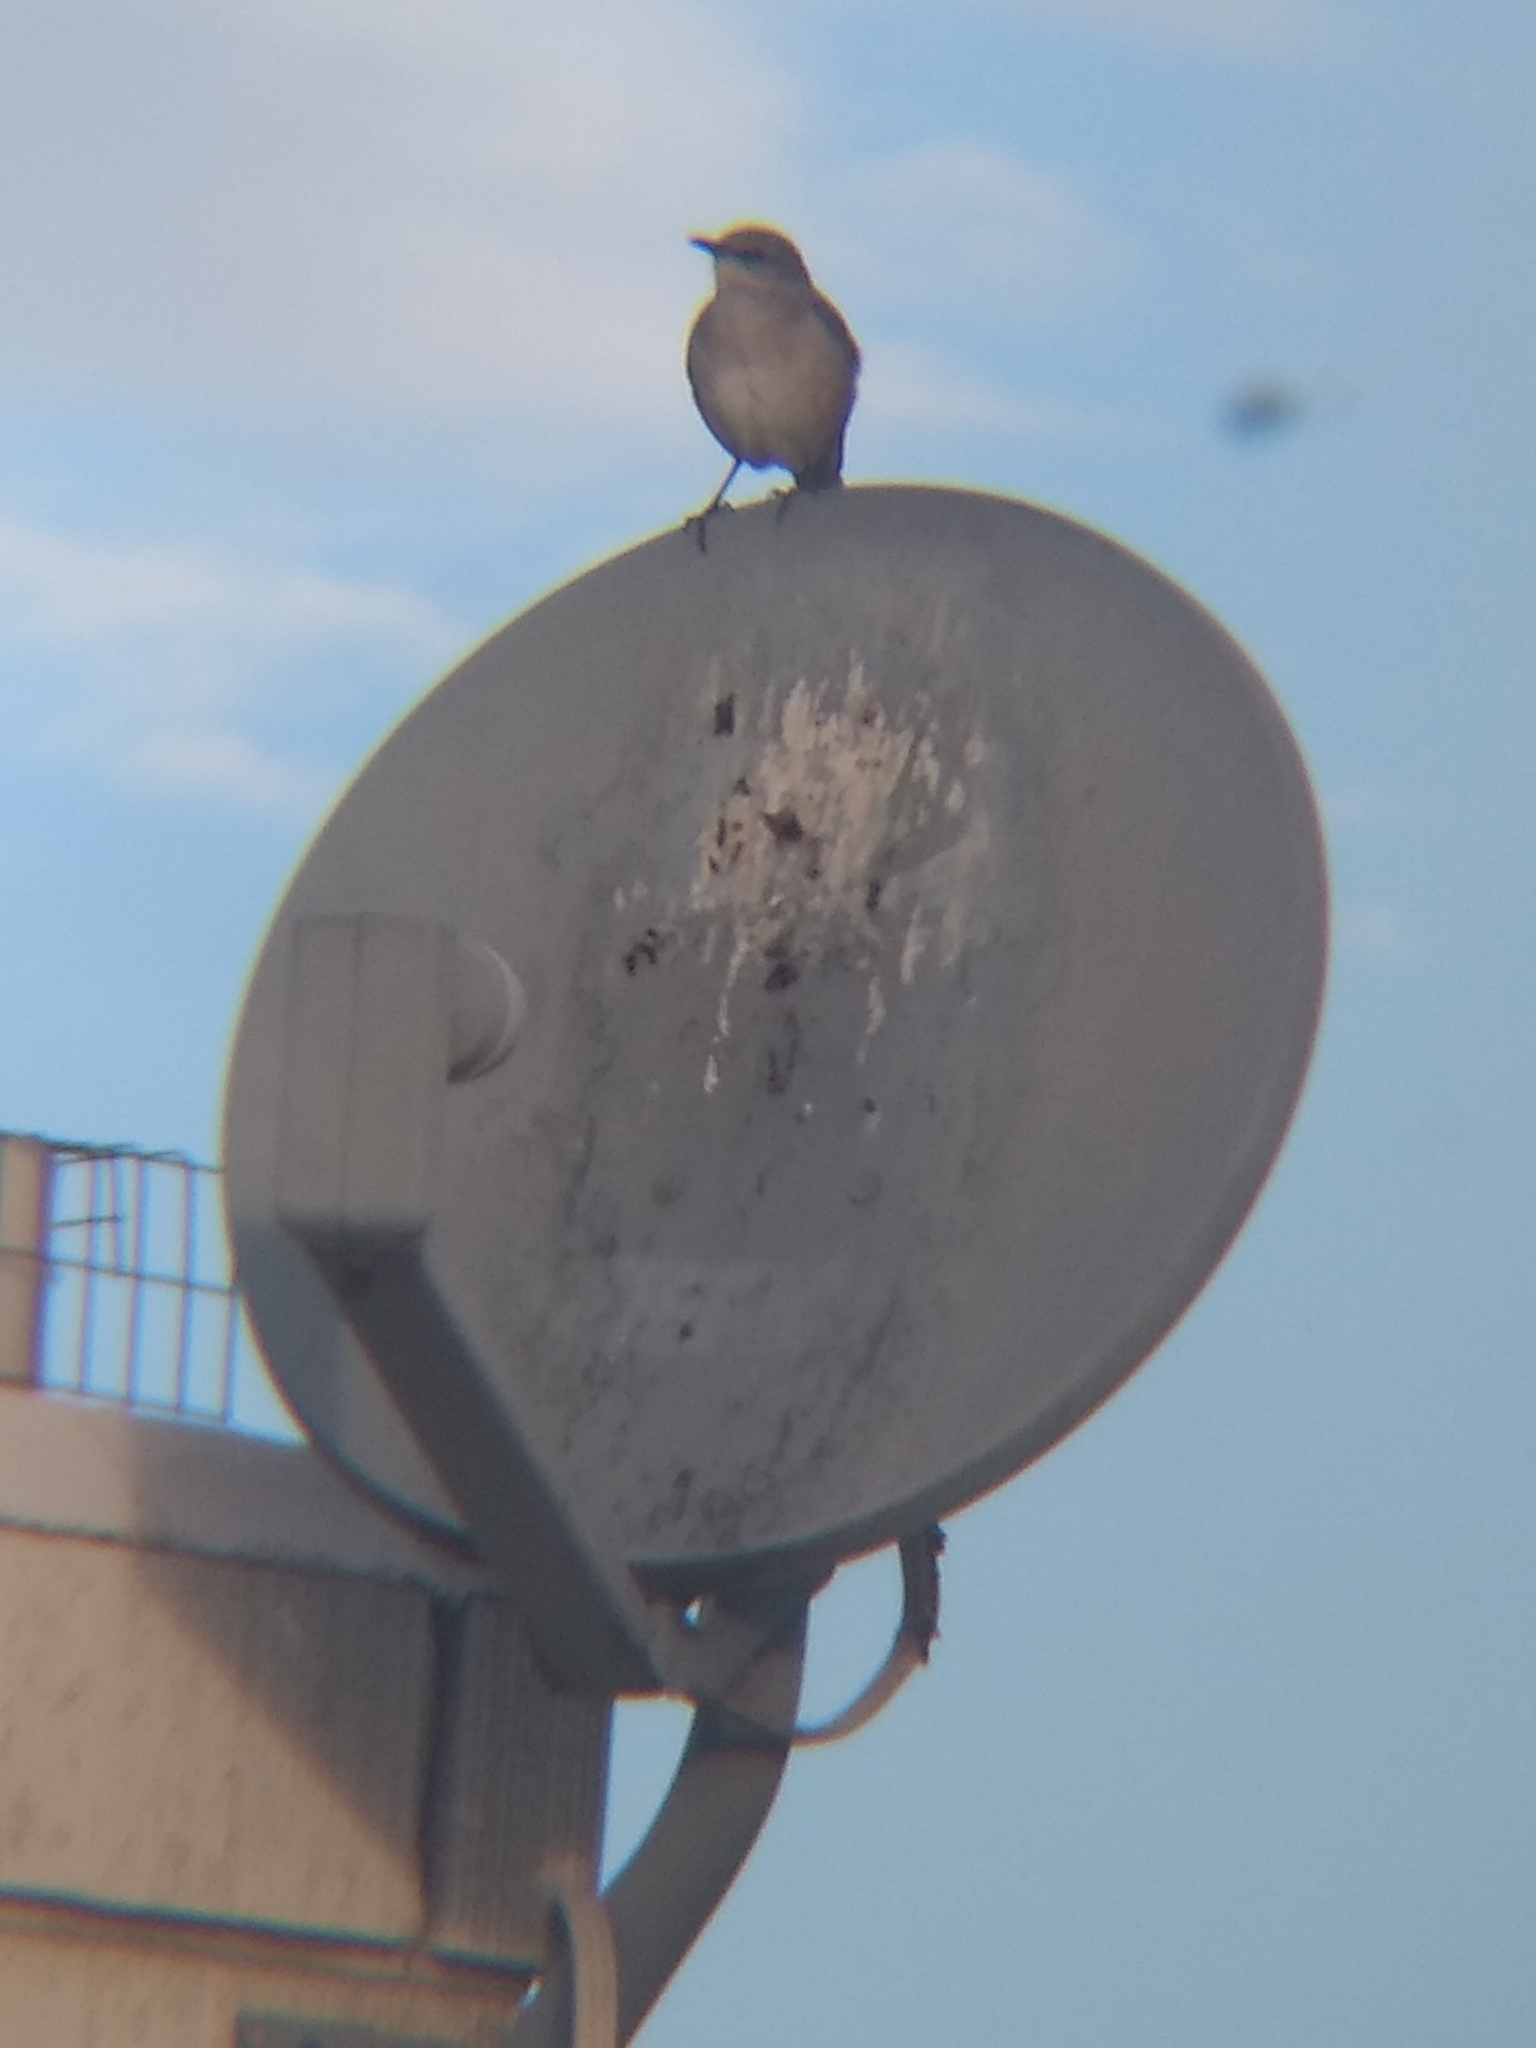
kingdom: Animalia
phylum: Chordata
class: Aves
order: Passeriformes
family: Mimidae
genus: Mimus
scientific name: Mimus polyglottos
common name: Northern mockingbird
